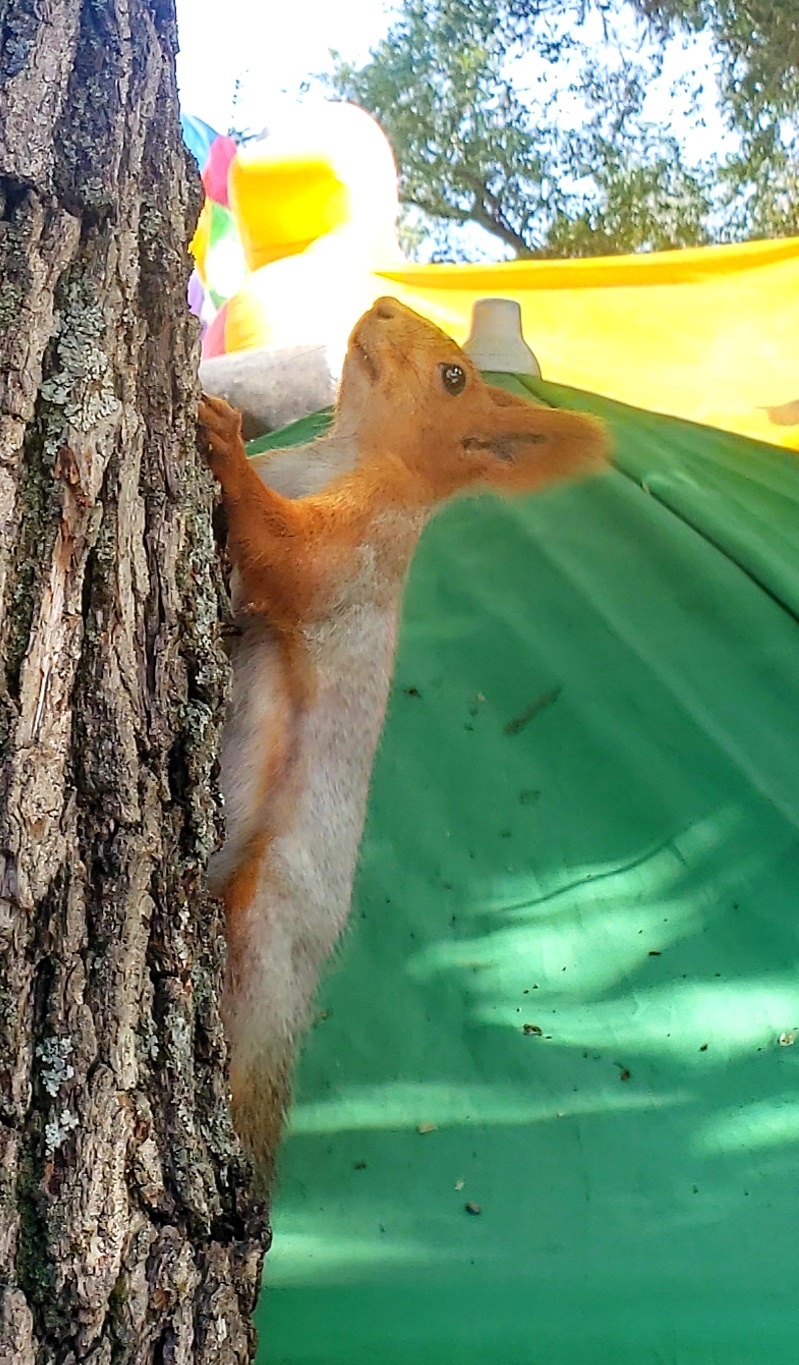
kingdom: Animalia
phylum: Chordata
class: Mammalia
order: Rodentia
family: Sciuridae
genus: Sciurus
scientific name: Sciurus vulgaris
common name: Eurasian red squirrel
